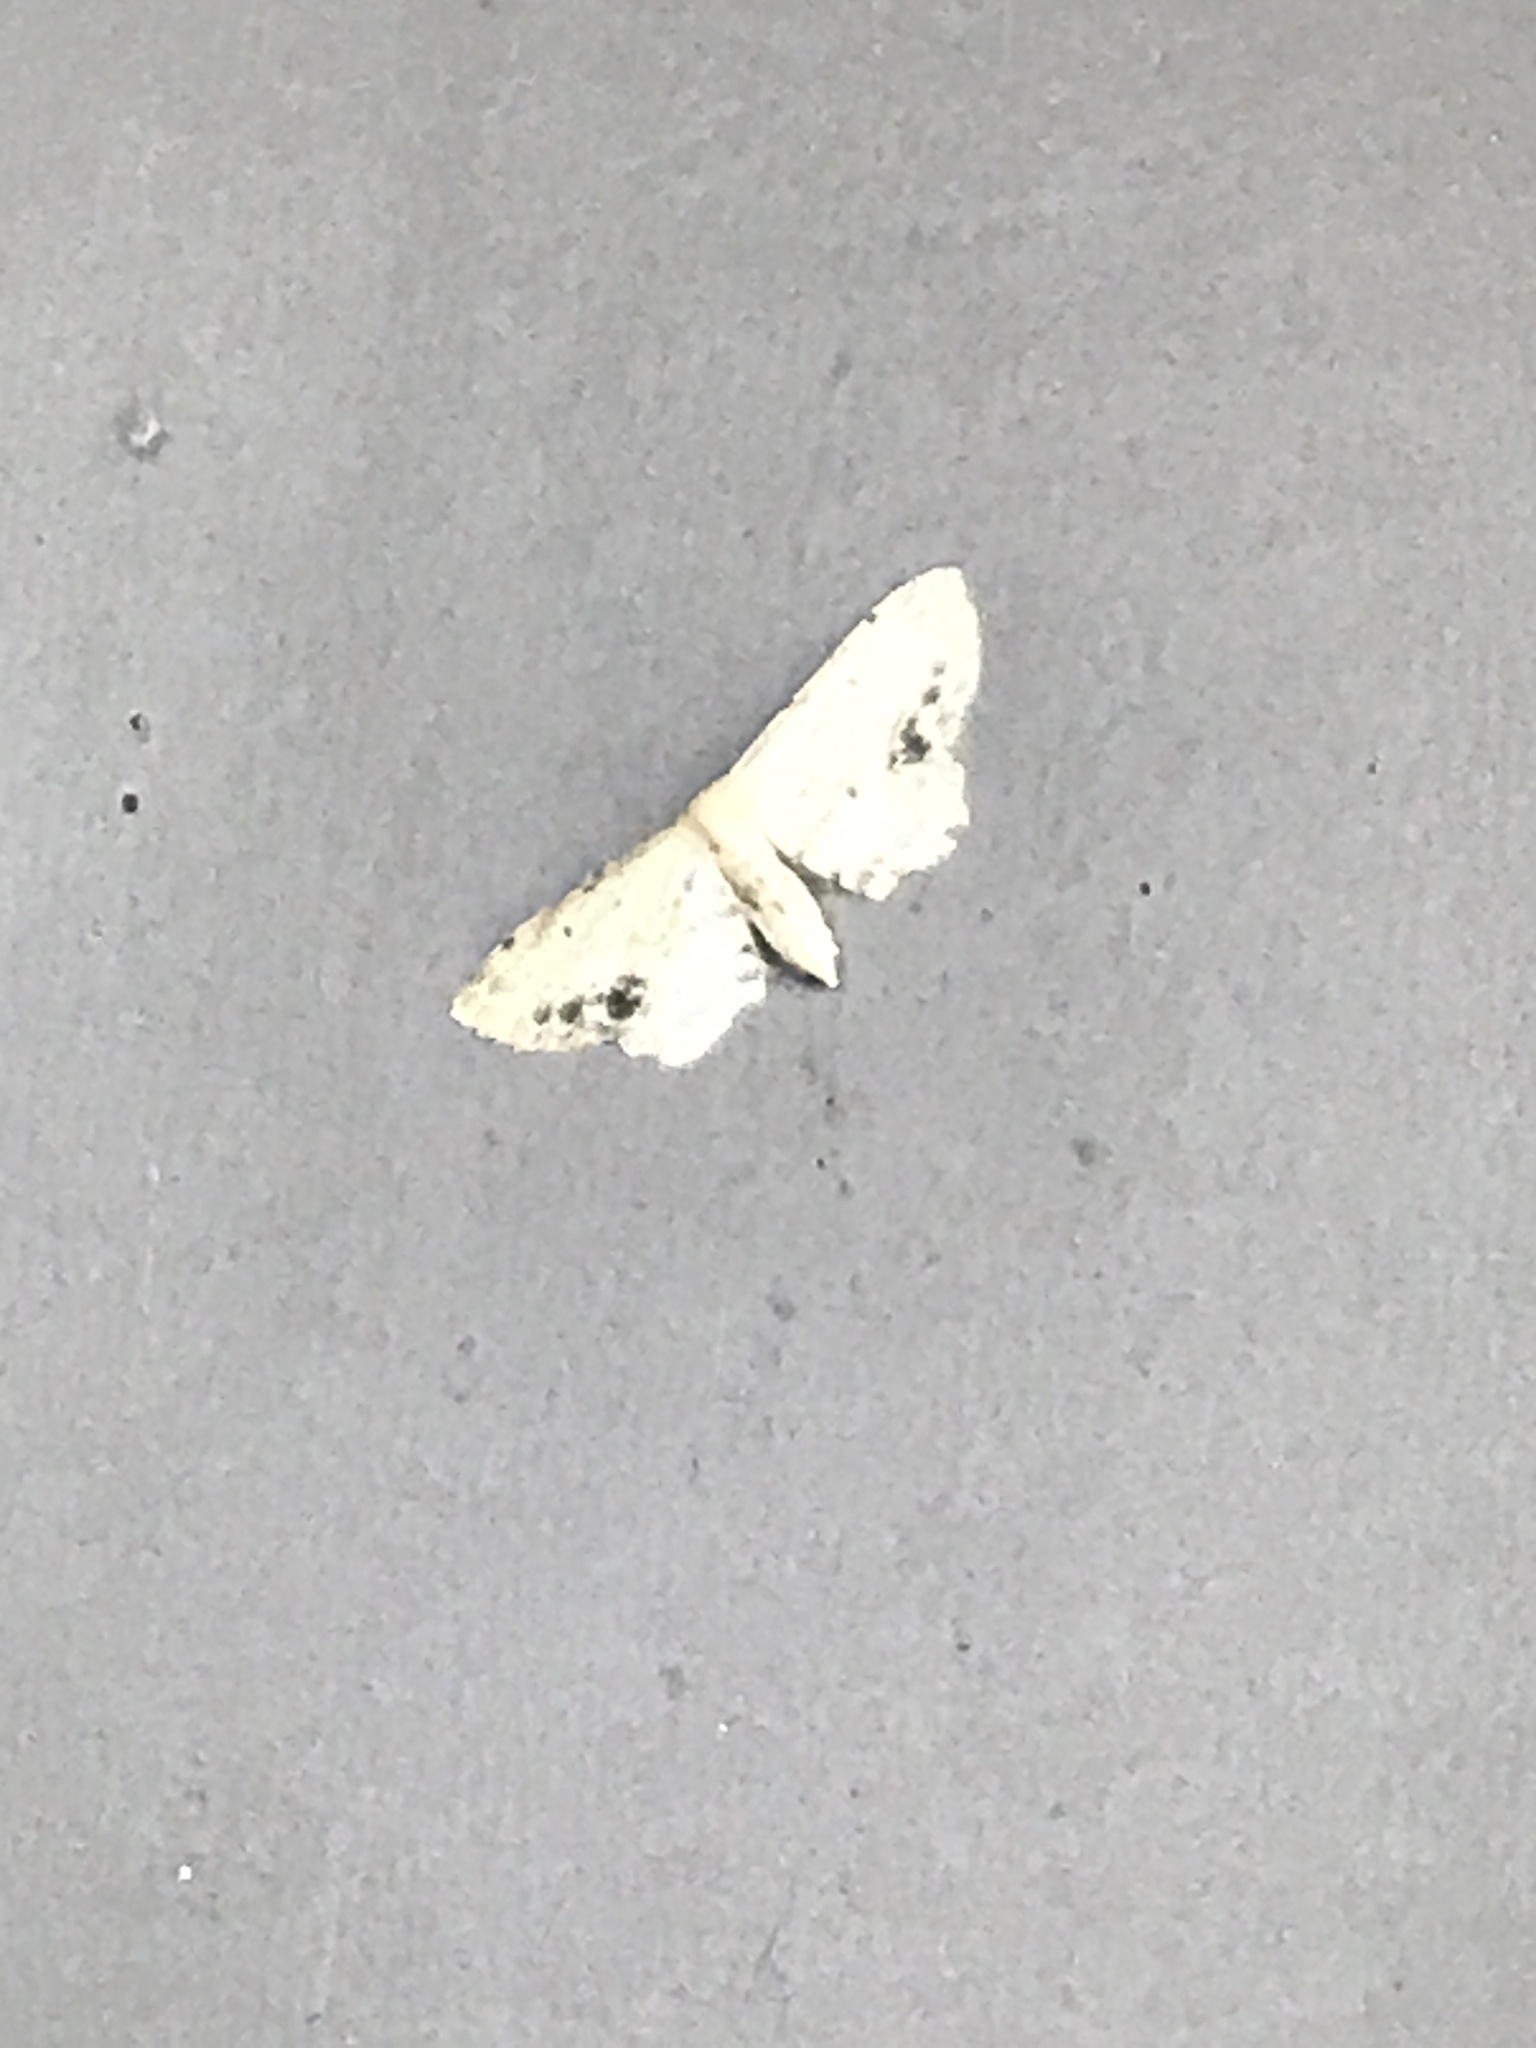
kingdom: Animalia
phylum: Arthropoda
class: Insecta
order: Lepidoptera
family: Geometridae
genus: Idaea
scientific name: Idaea dimidiata
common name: Single-dotted wave
